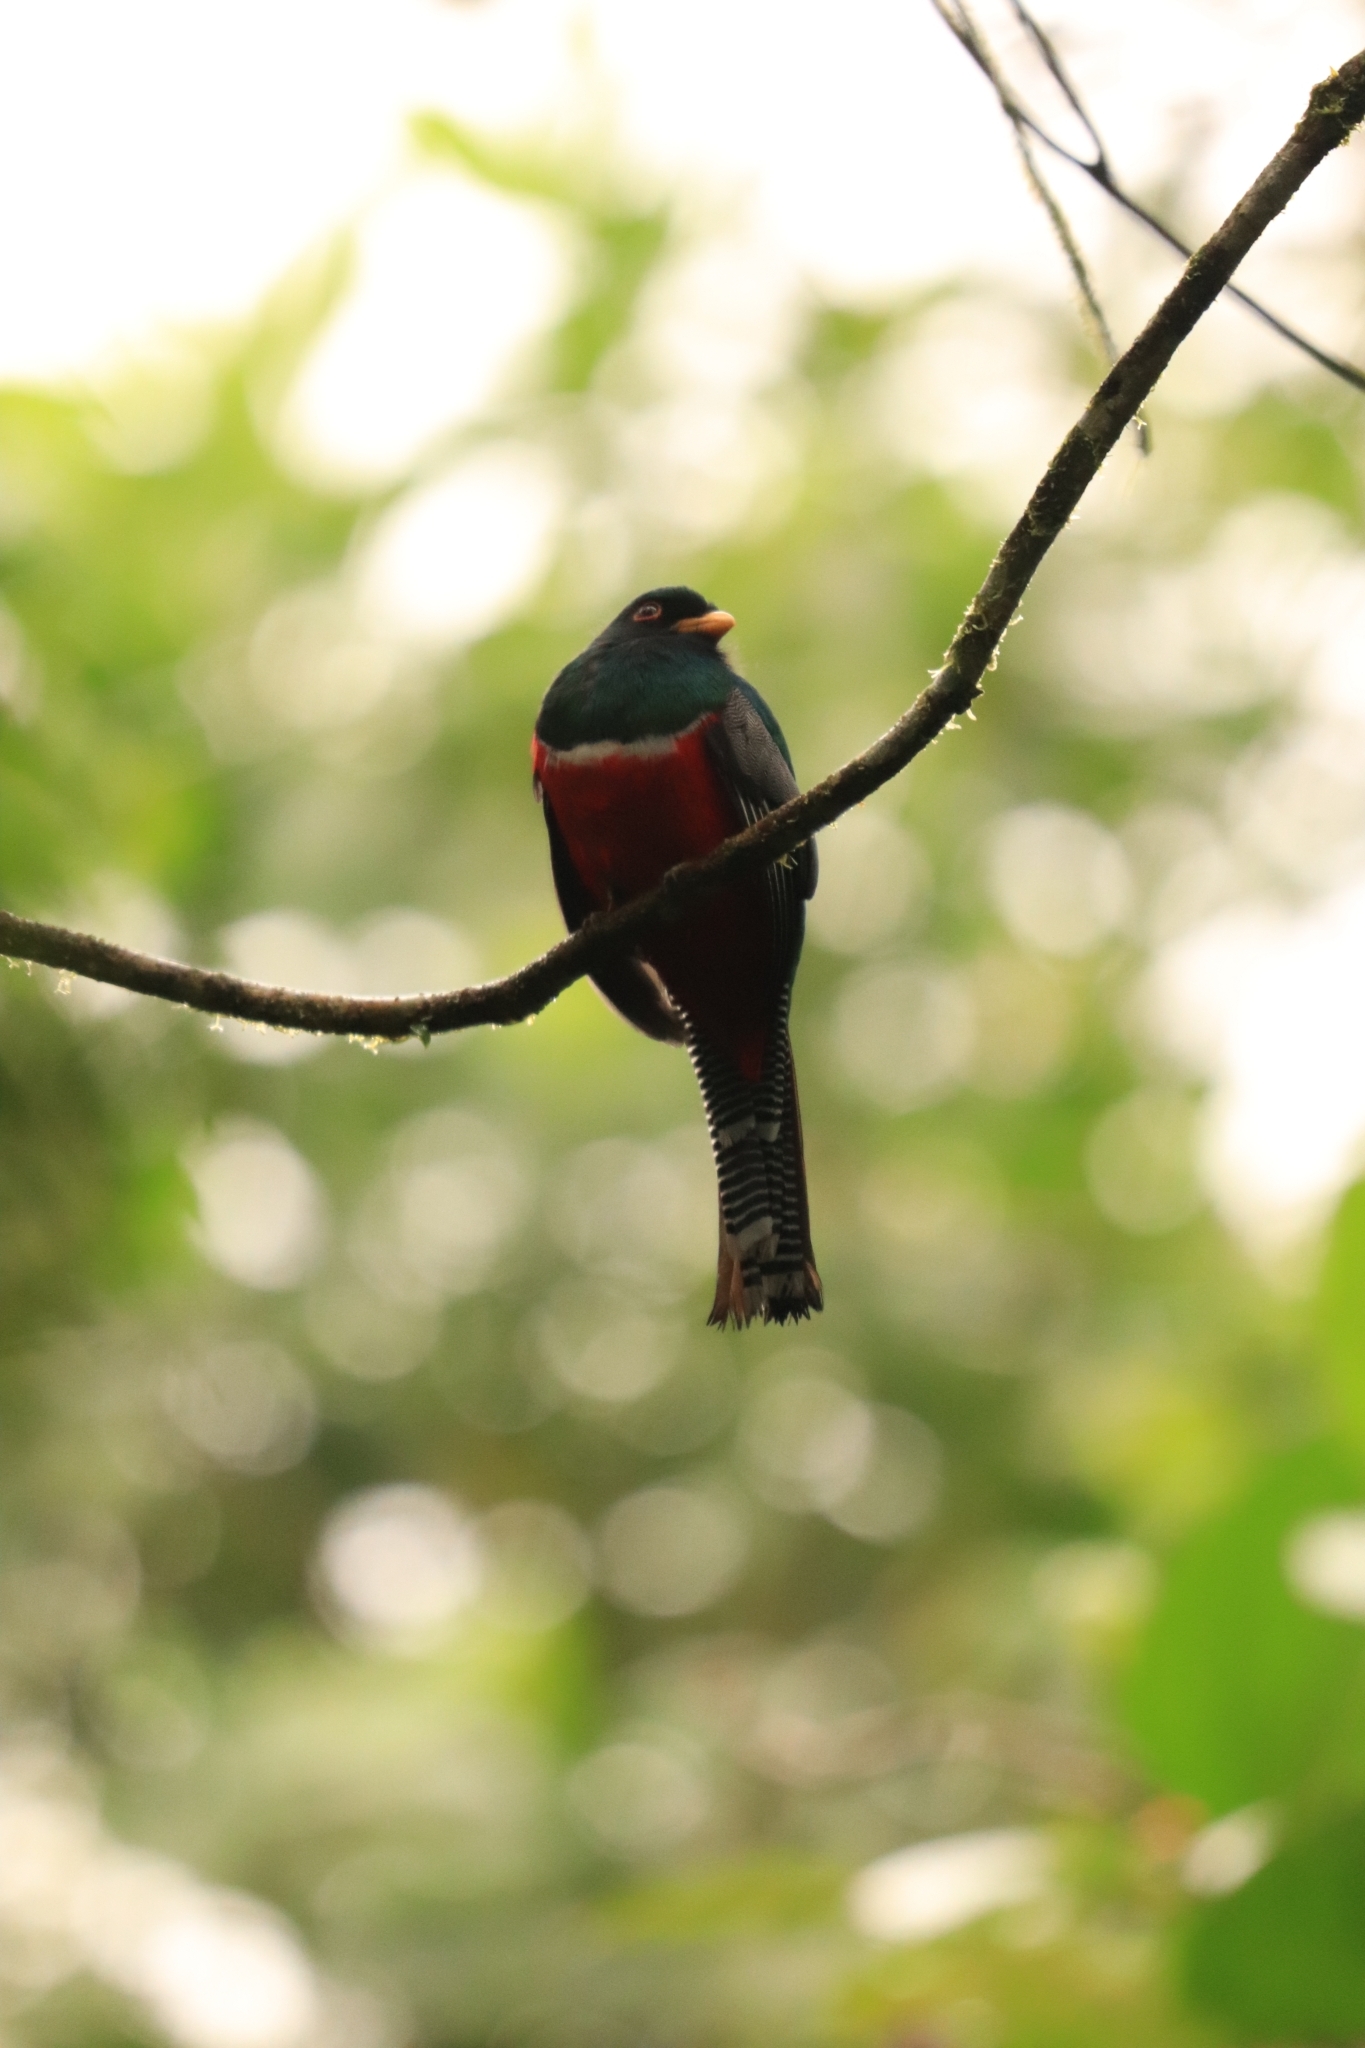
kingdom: Animalia
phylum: Chordata
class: Aves
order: Trogoniformes
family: Trogonidae
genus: Trogon
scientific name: Trogon collaris
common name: Collared trogon
